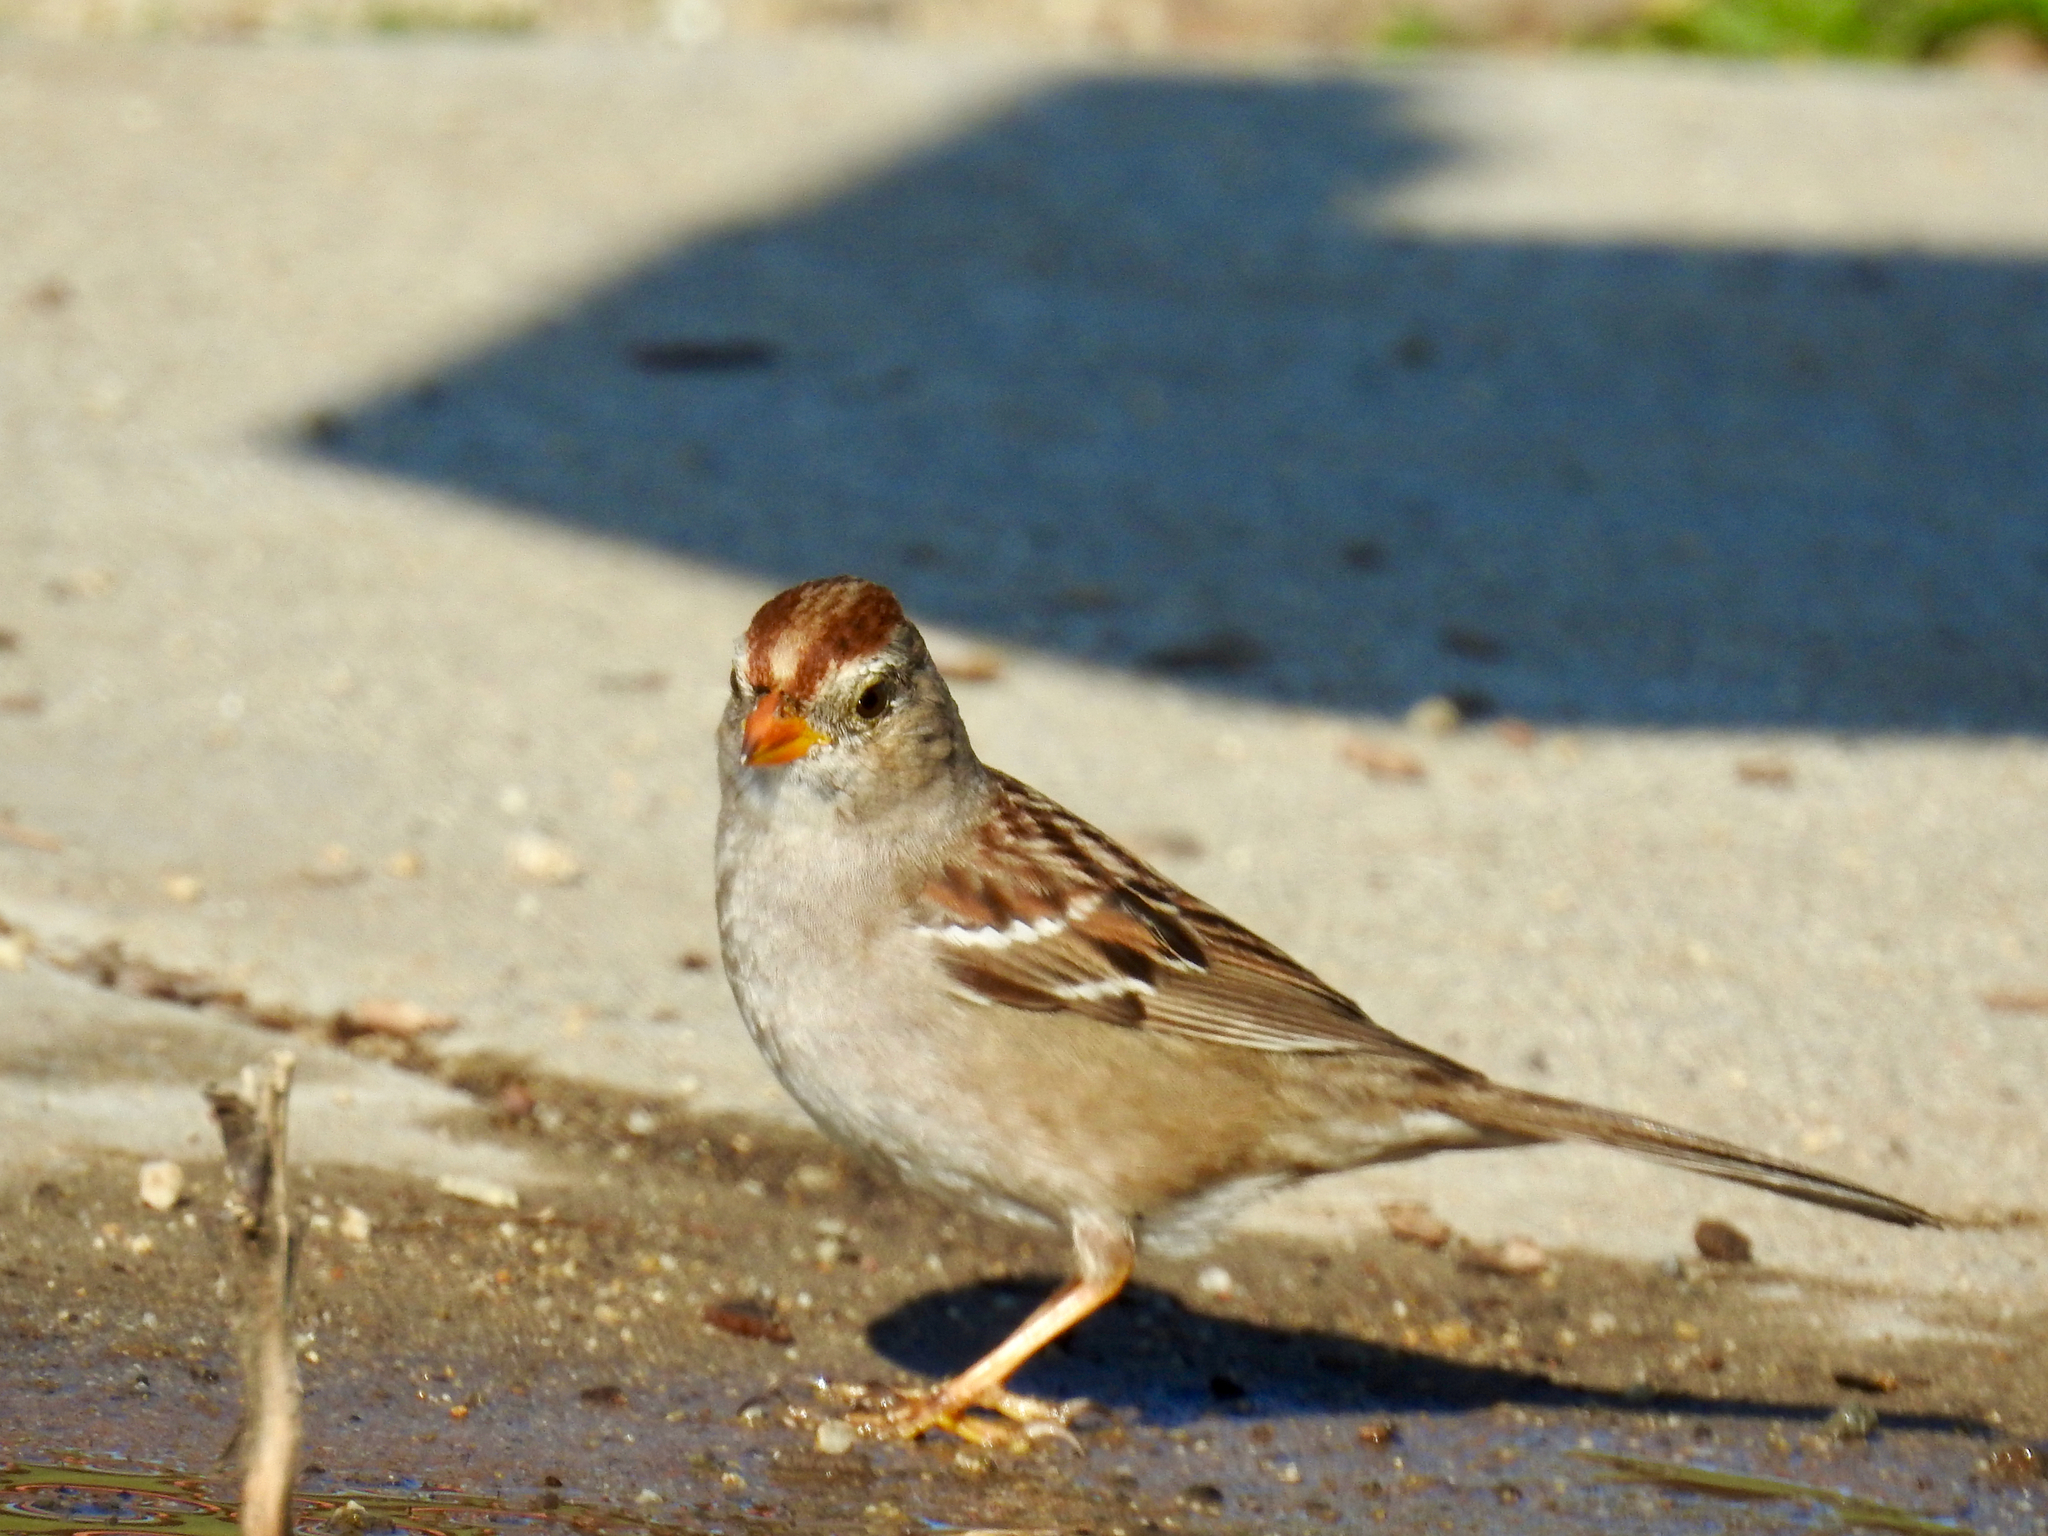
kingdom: Animalia
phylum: Chordata
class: Aves
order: Passeriformes
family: Passerellidae
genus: Zonotrichia
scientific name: Zonotrichia leucophrys
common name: White-crowned sparrow
